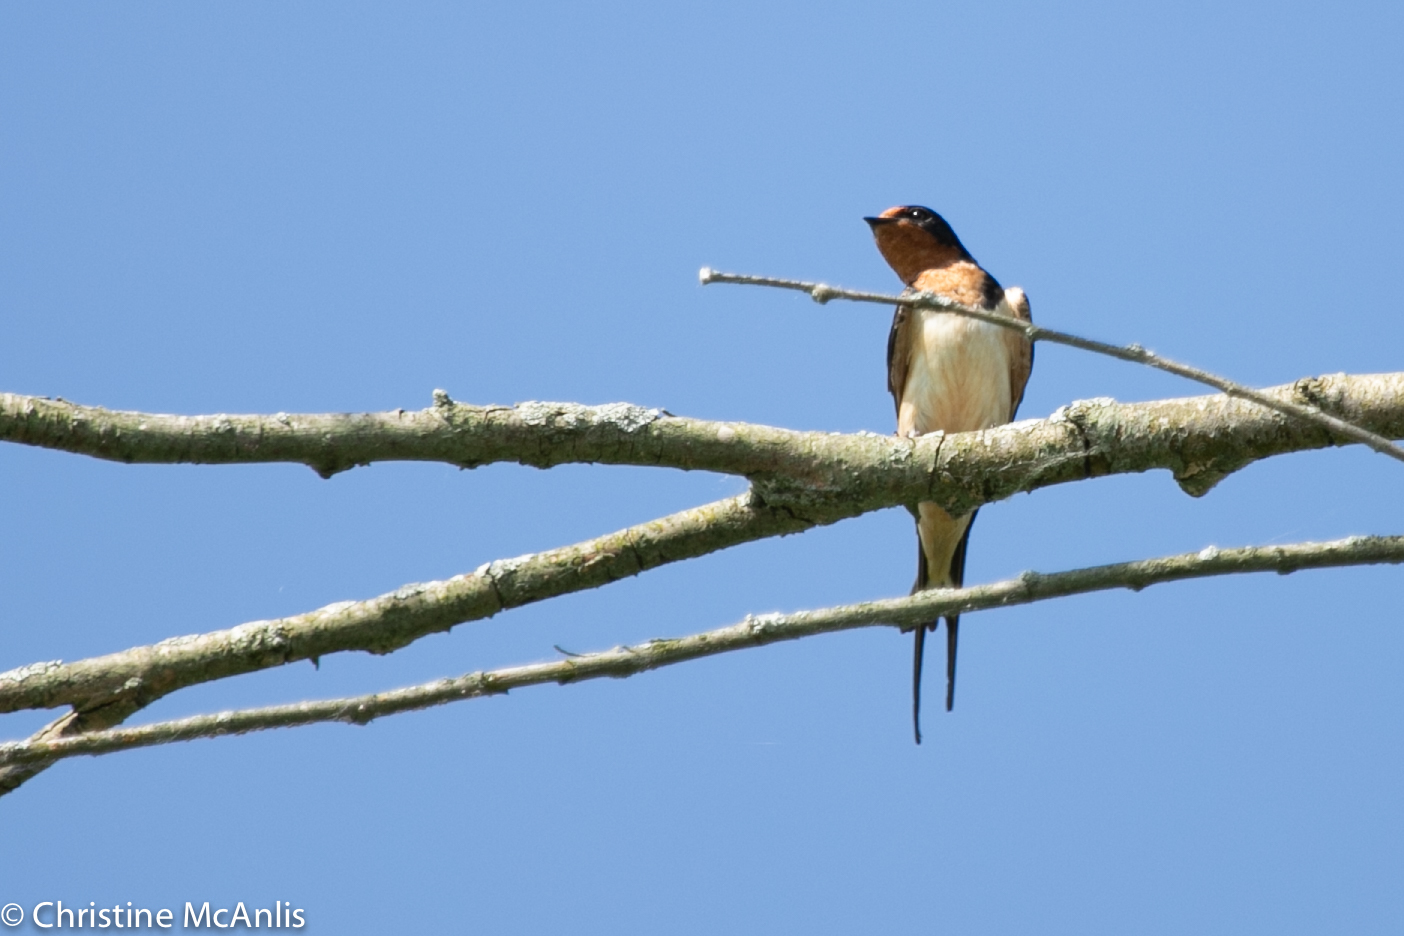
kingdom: Animalia
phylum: Chordata
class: Aves
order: Passeriformes
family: Hirundinidae
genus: Hirundo
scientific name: Hirundo rustica
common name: Barn swallow
